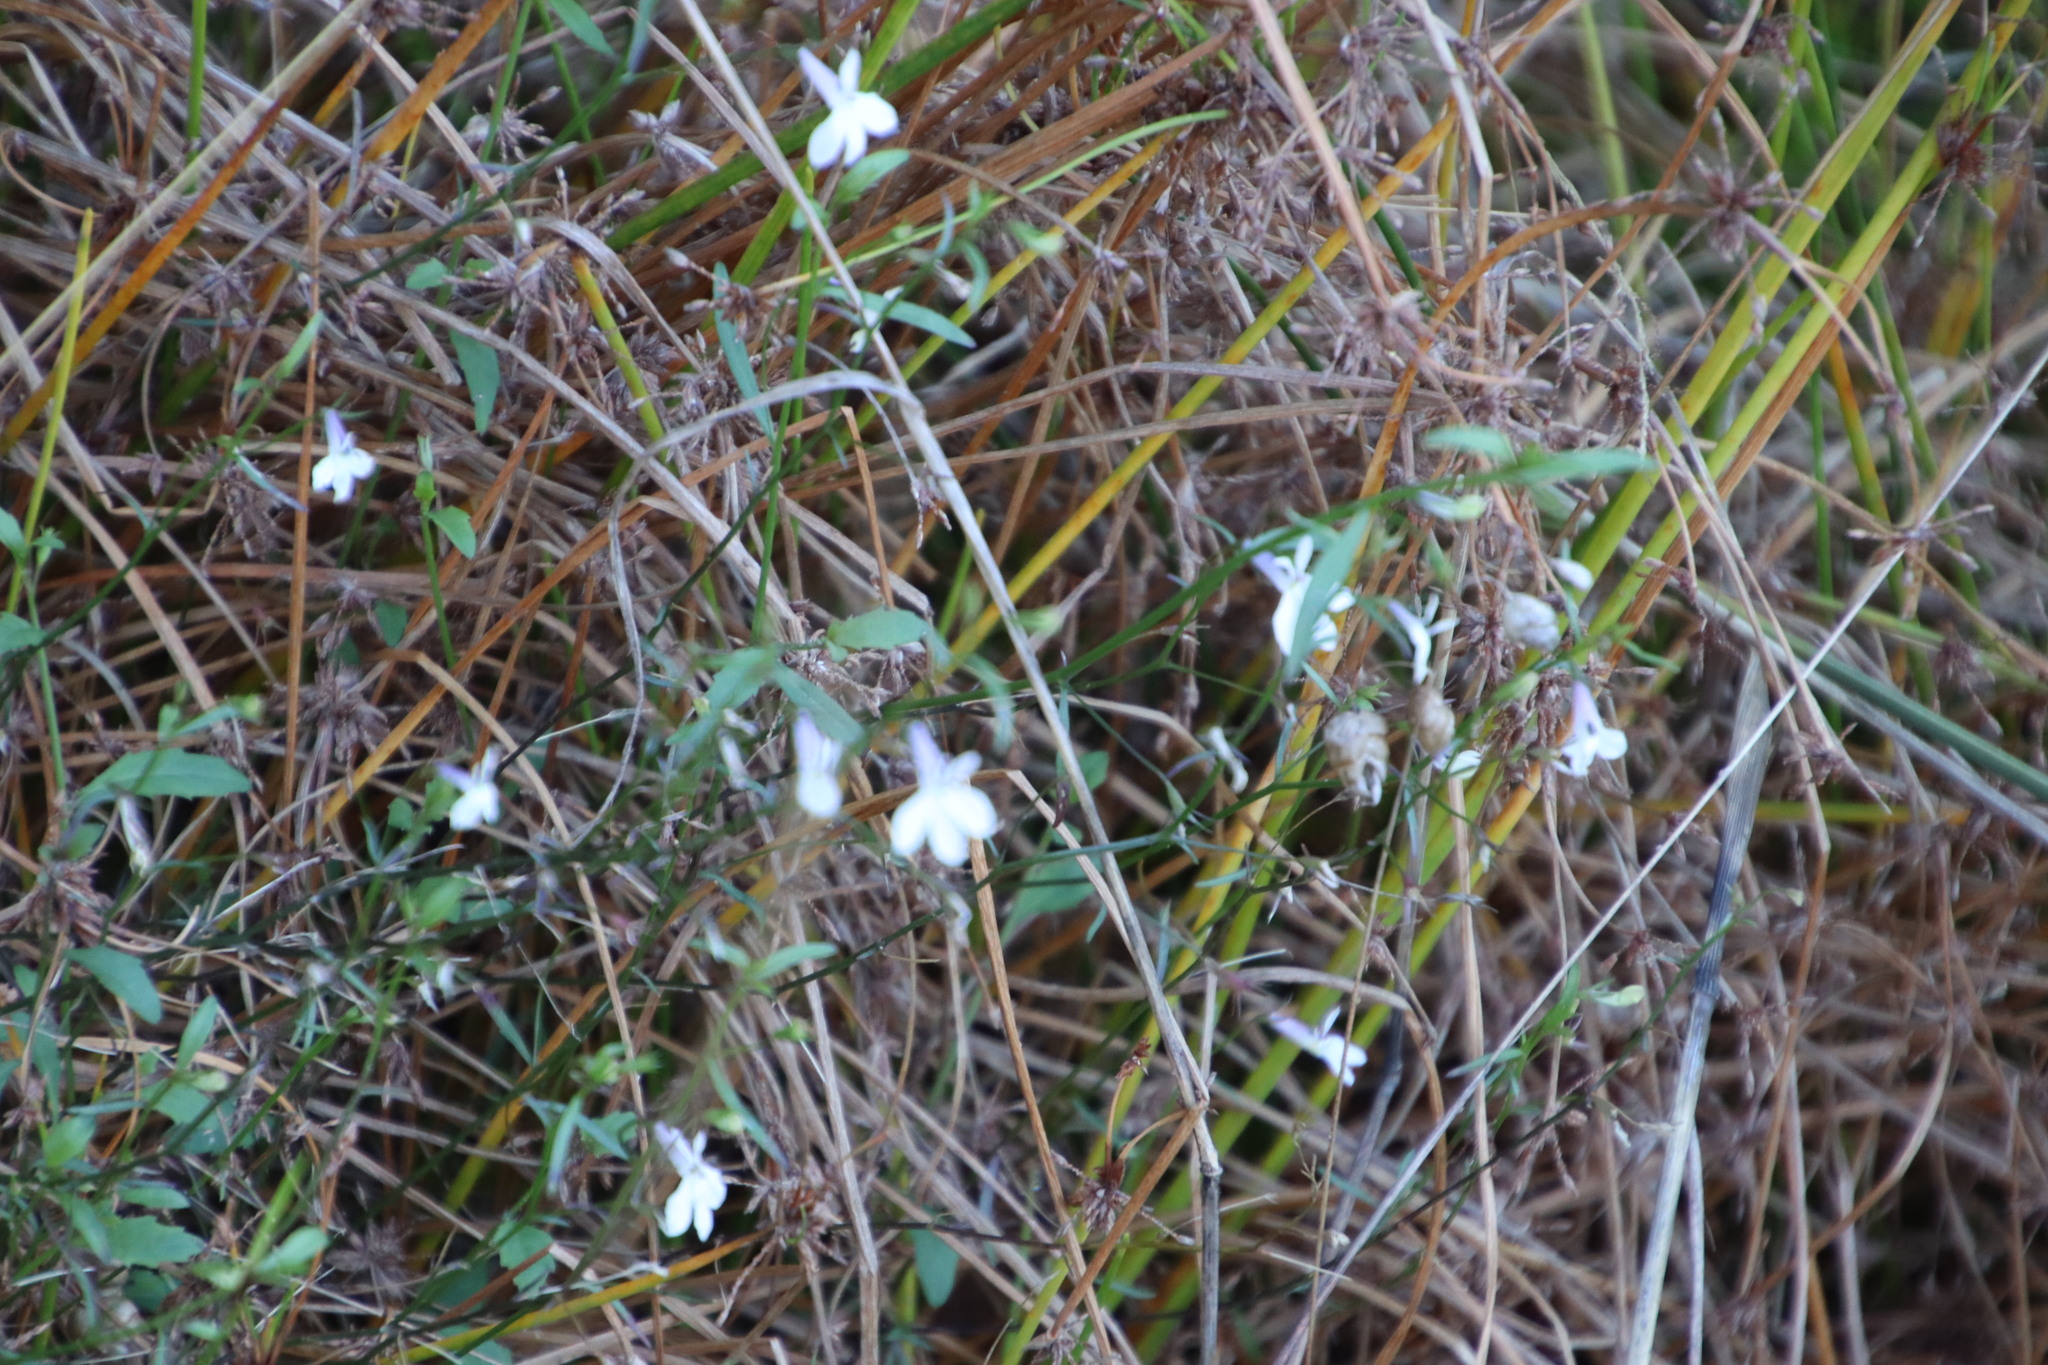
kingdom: Plantae
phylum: Tracheophyta
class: Magnoliopsida
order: Asterales
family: Campanulaceae
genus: Lobelia
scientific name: Lobelia pubescens
